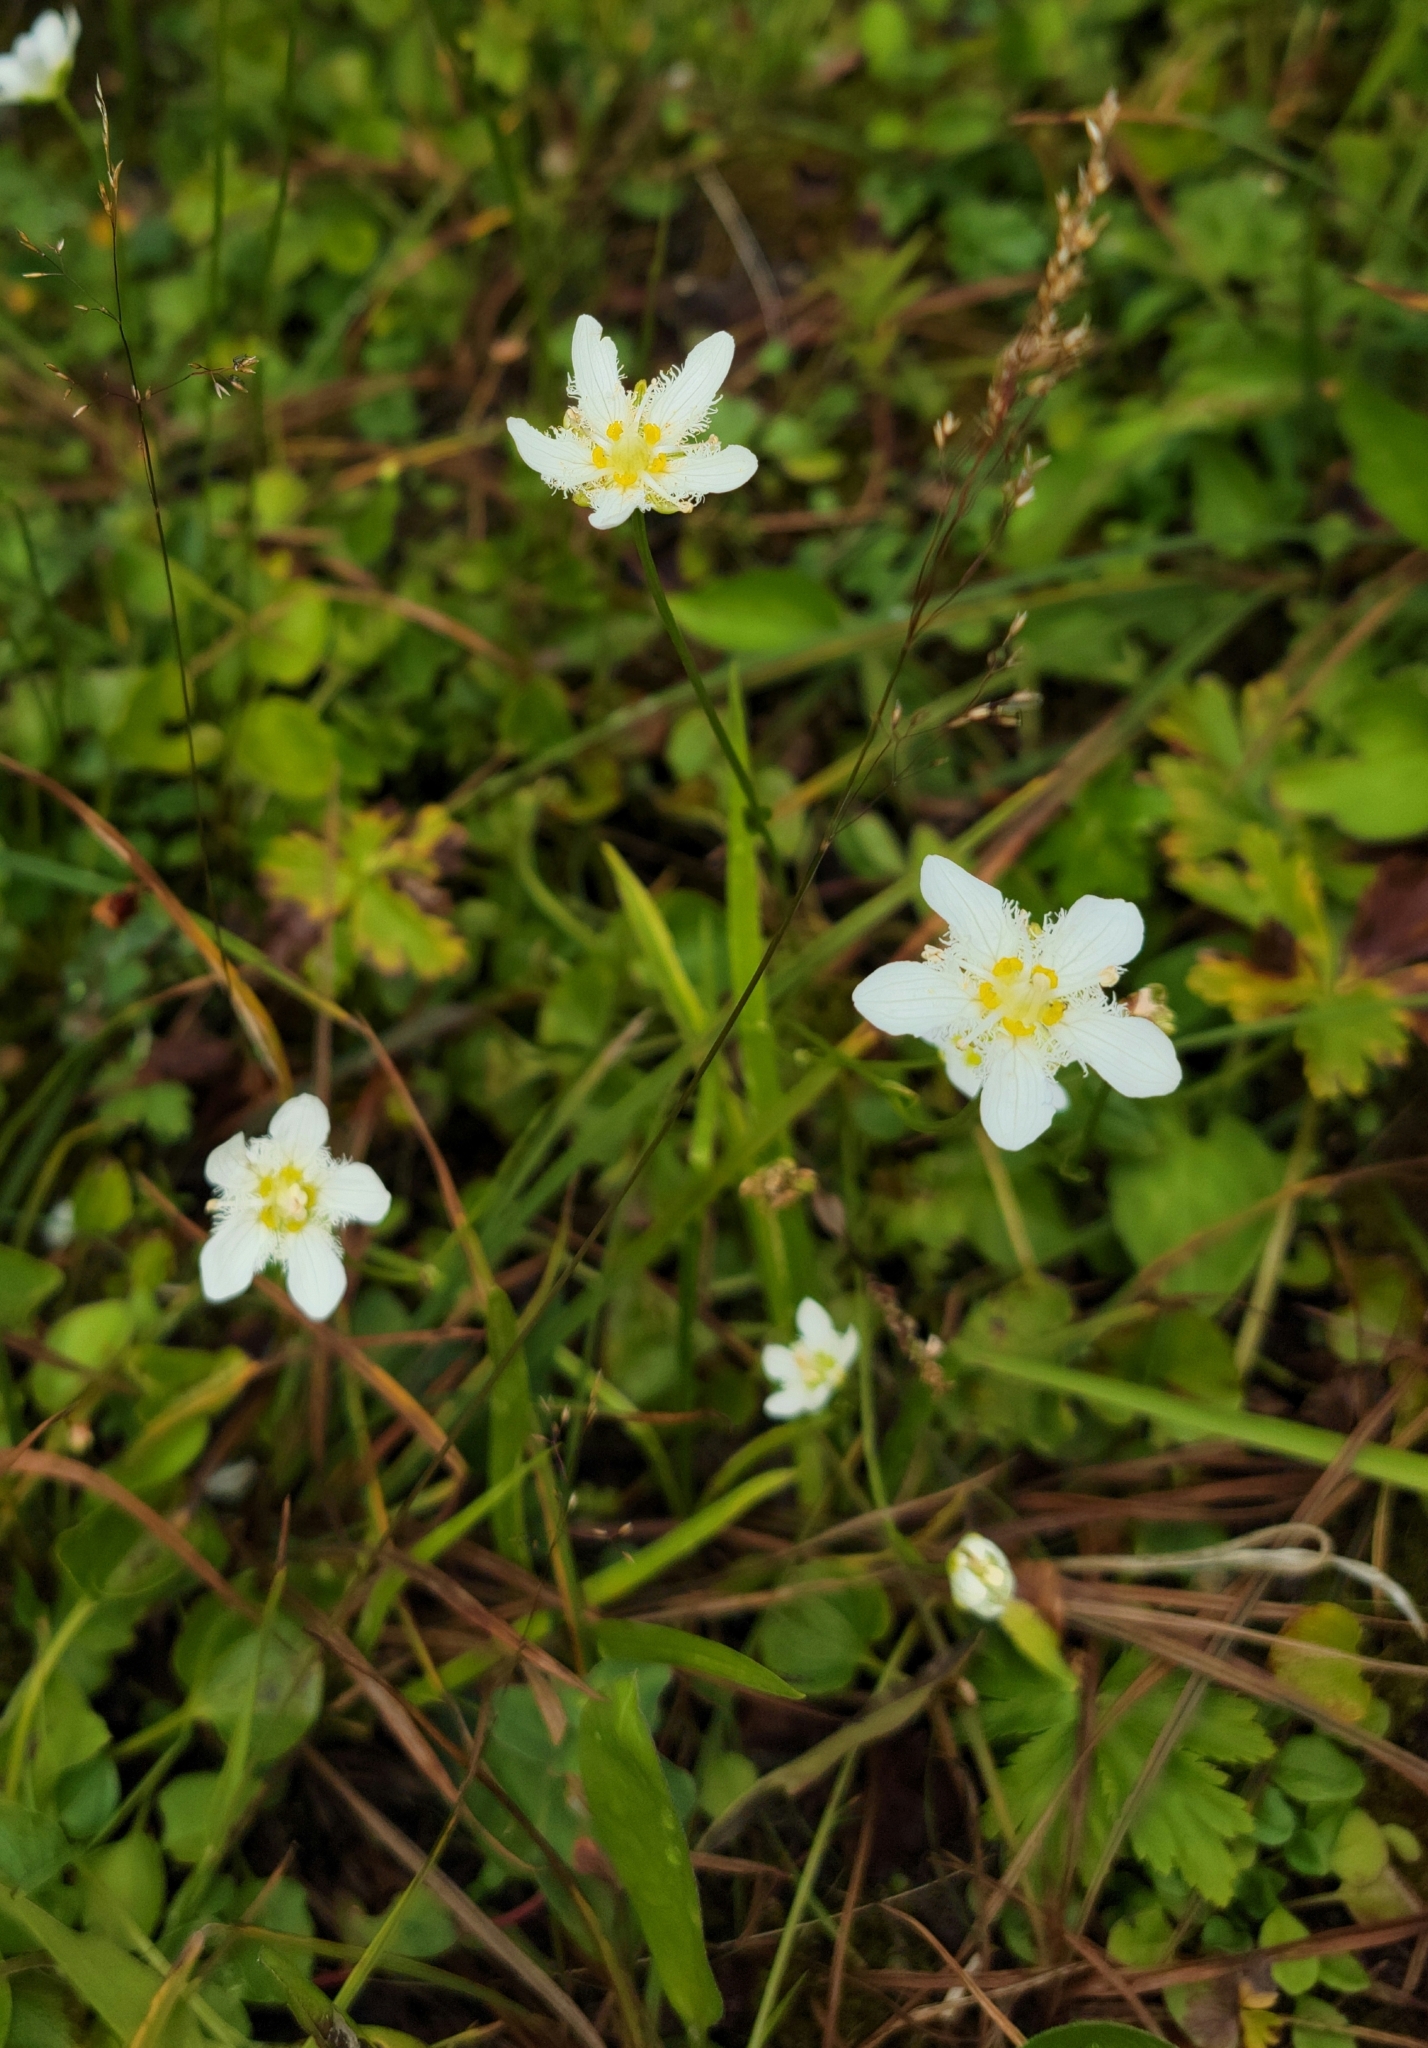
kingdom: Plantae
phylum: Tracheophyta
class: Magnoliopsida
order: Celastrales
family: Parnassiaceae
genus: Parnassia
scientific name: Parnassia fimbriata
